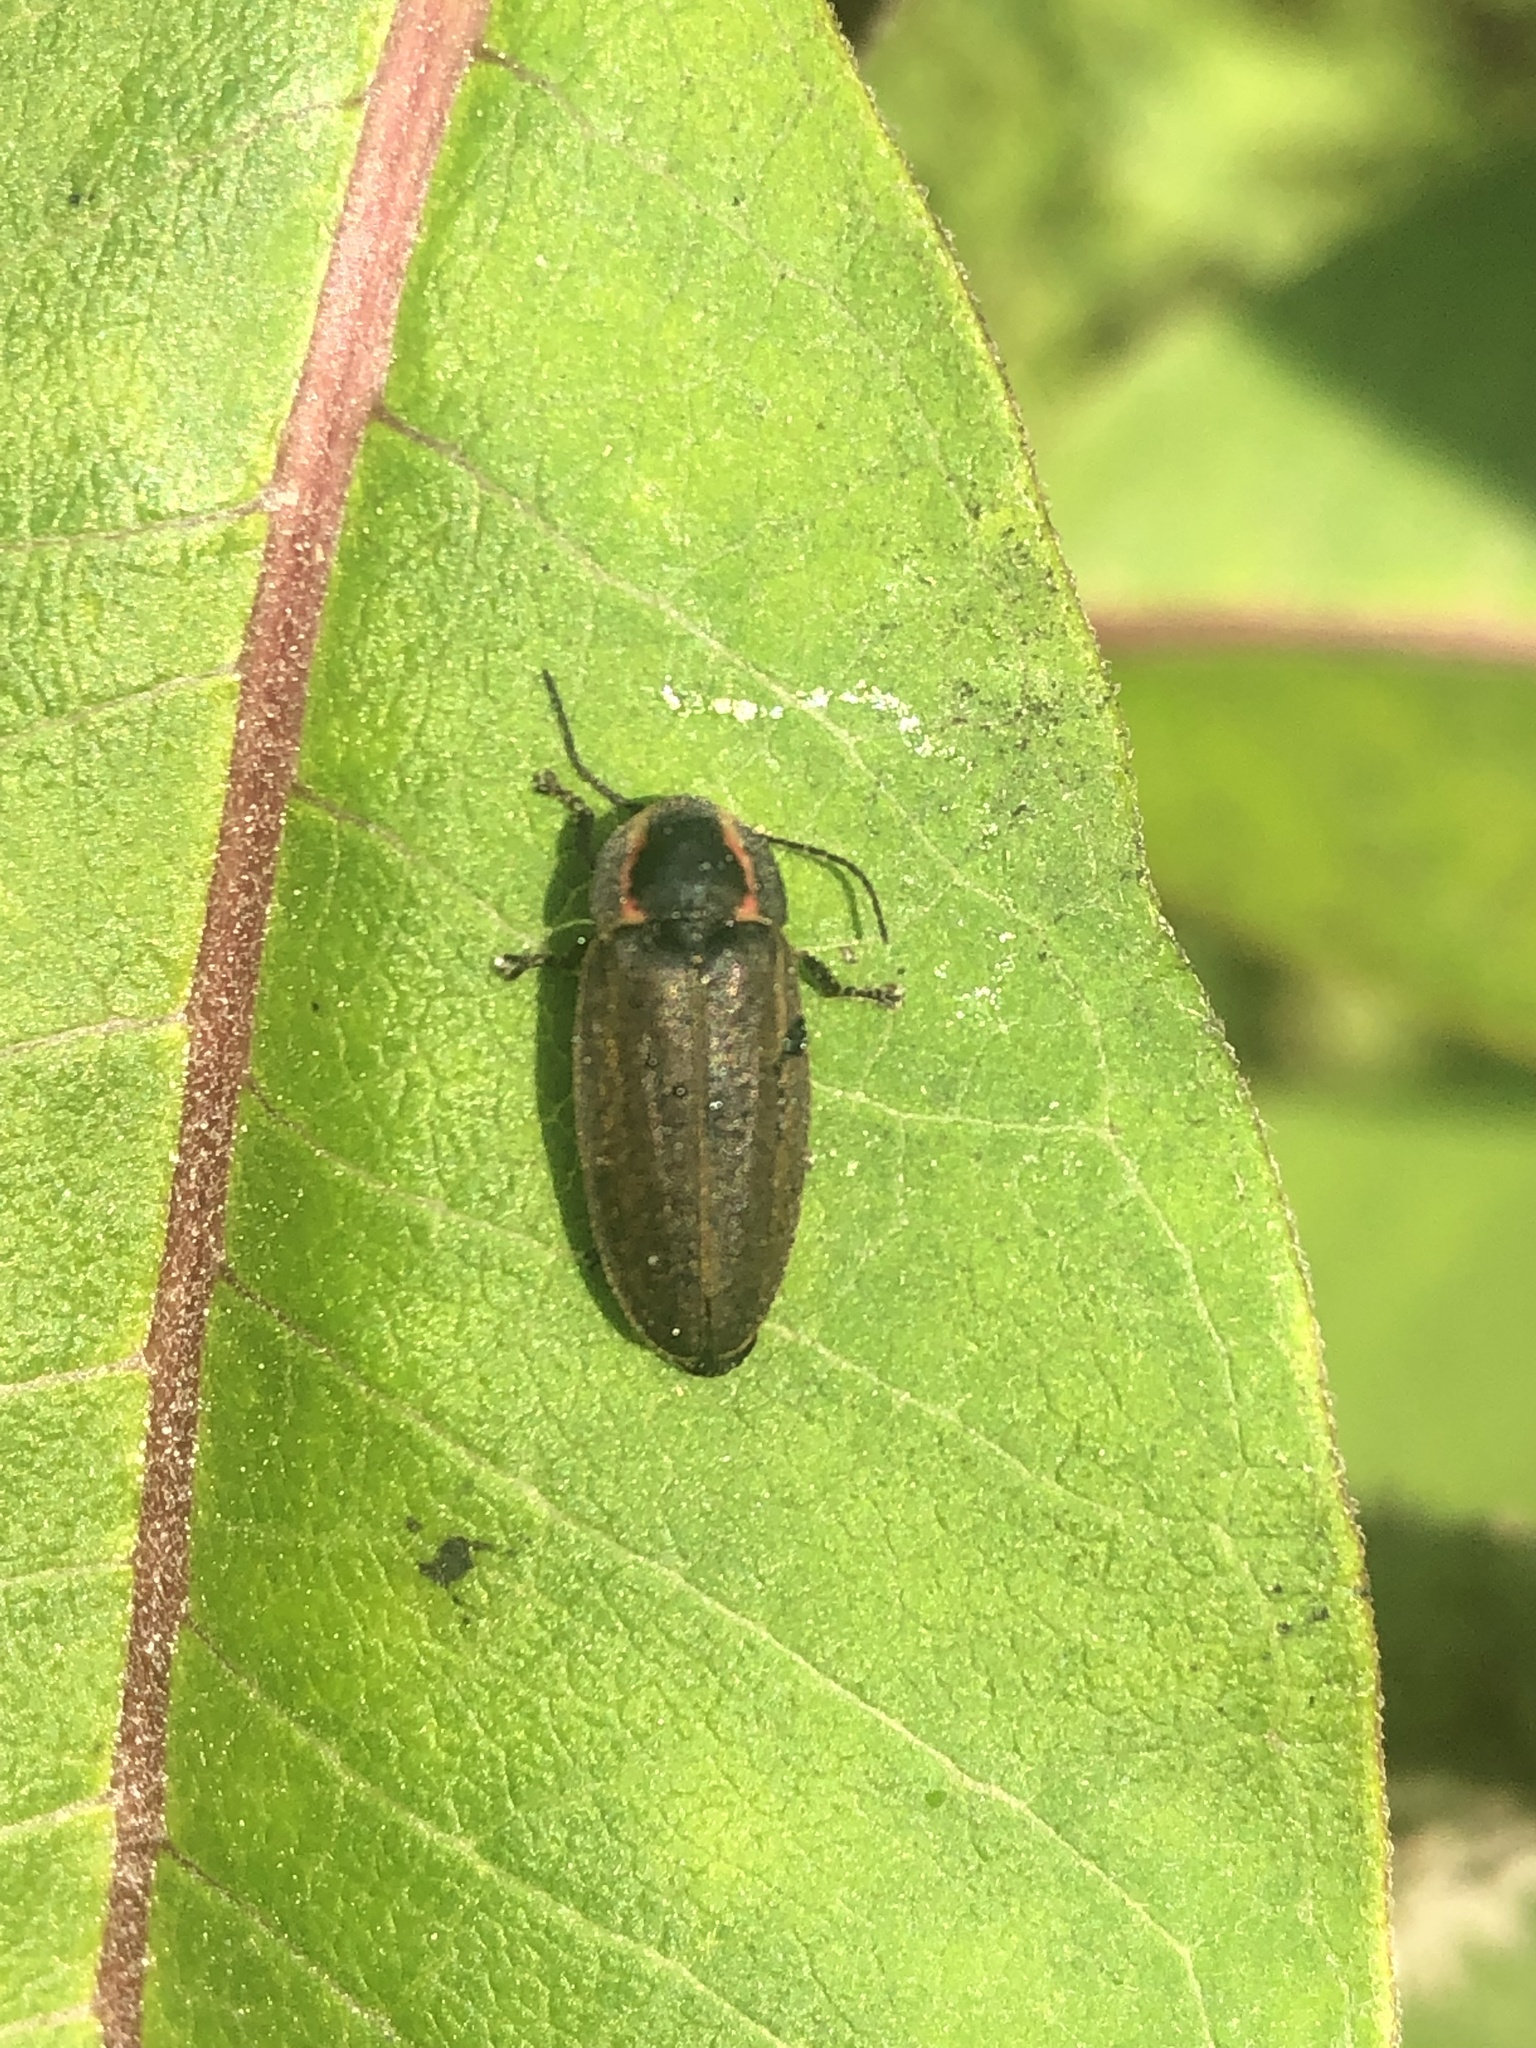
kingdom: Animalia
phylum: Arthropoda
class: Insecta
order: Coleoptera
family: Lampyridae
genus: Photinus
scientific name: Photinus corrusca
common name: Winter firefly
